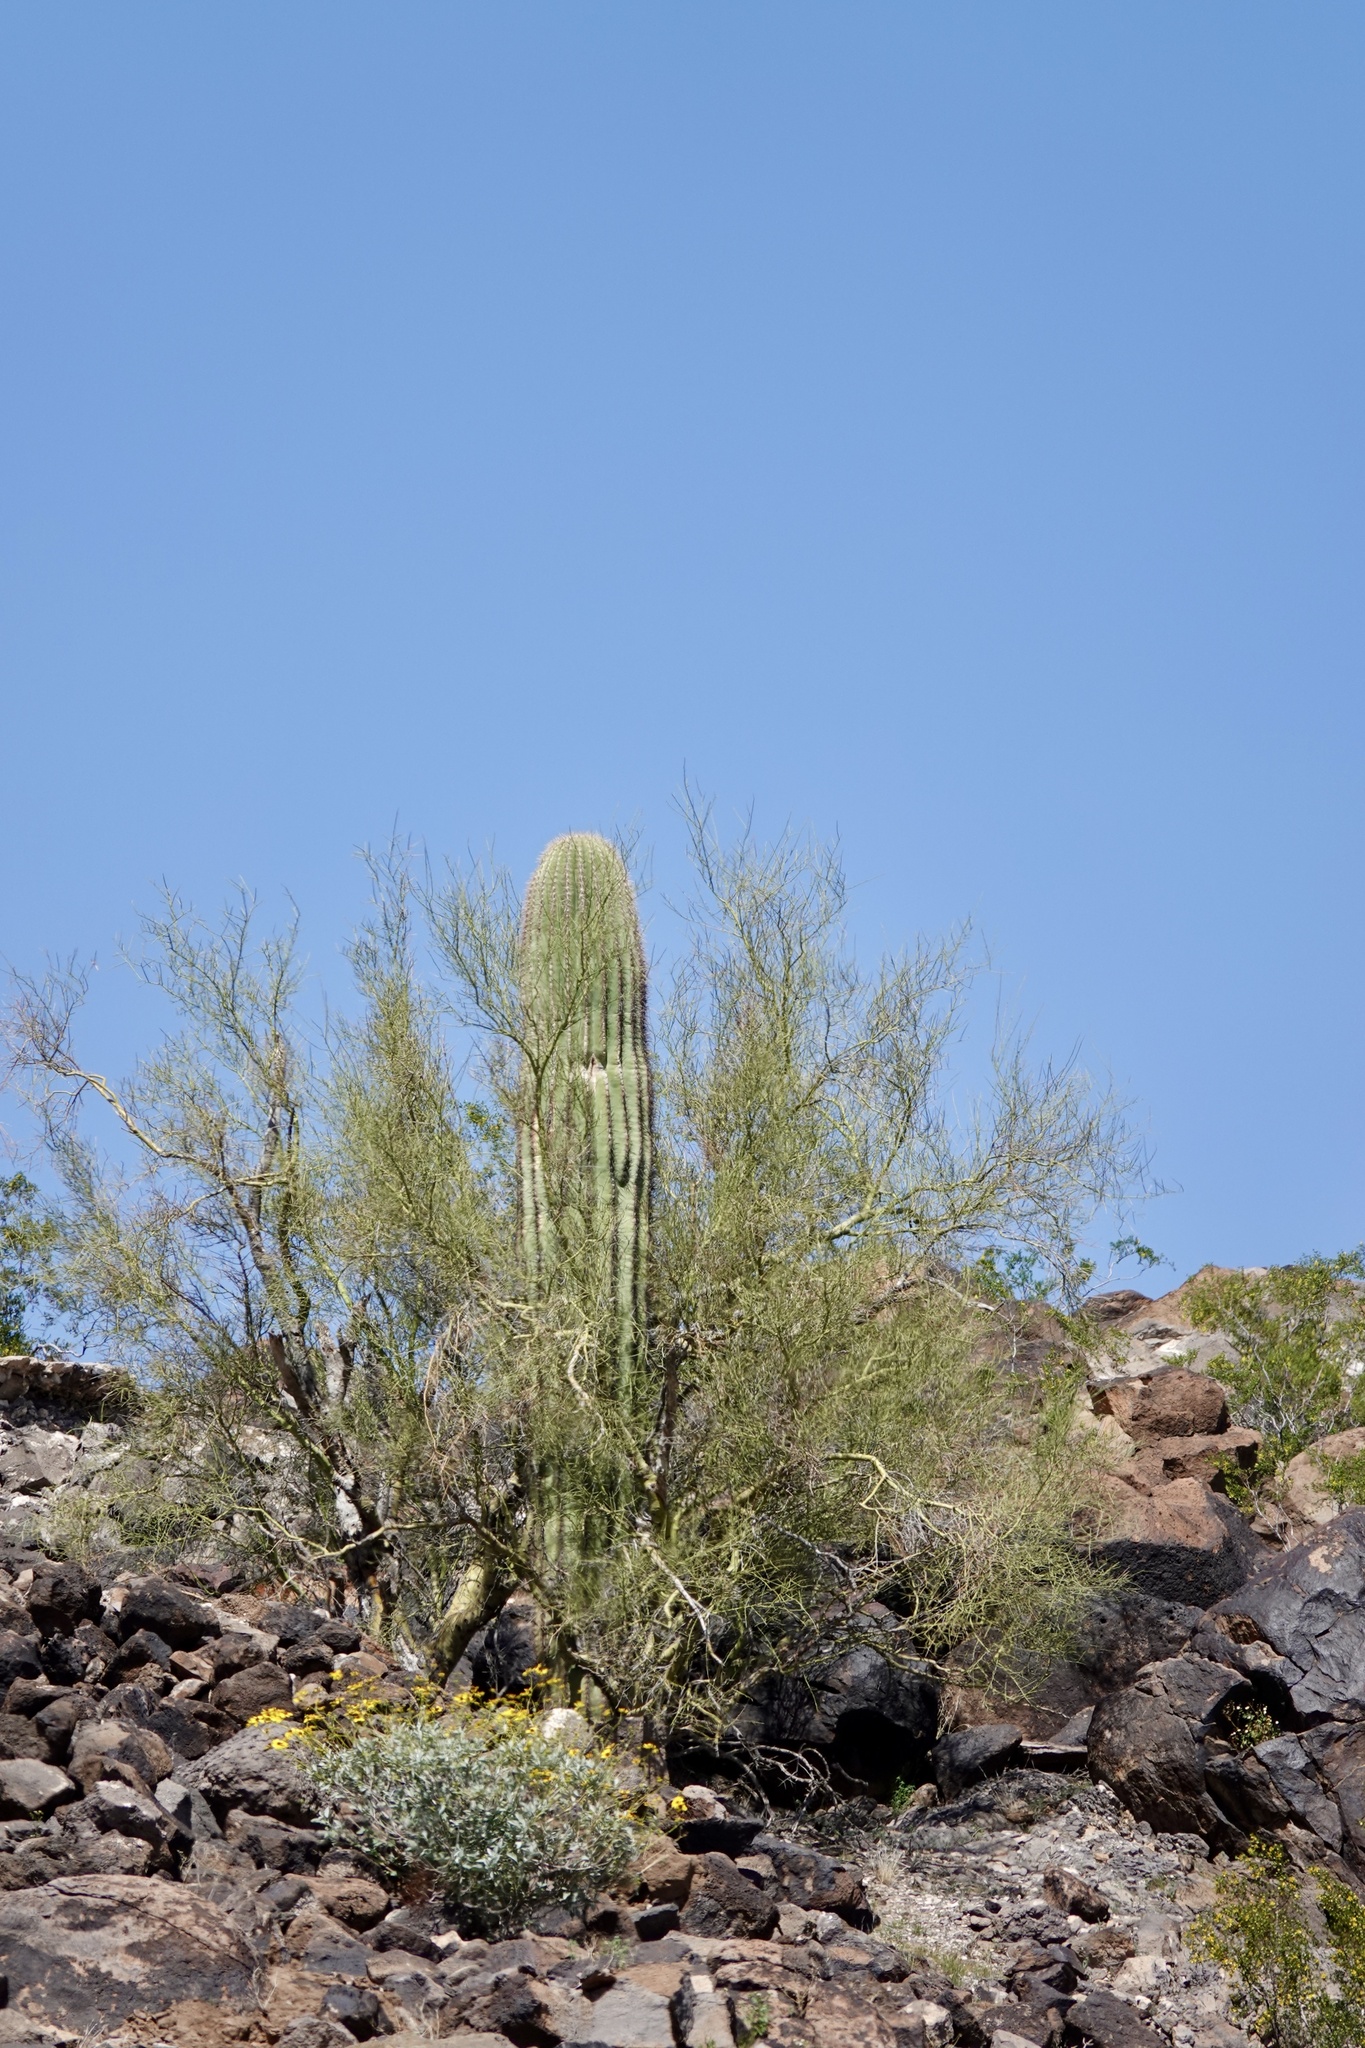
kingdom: Plantae
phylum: Tracheophyta
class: Magnoliopsida
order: Caryophyllales
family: Cactaceae
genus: Carnegiea
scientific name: Carnegiea gigantea
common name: Saguaro
